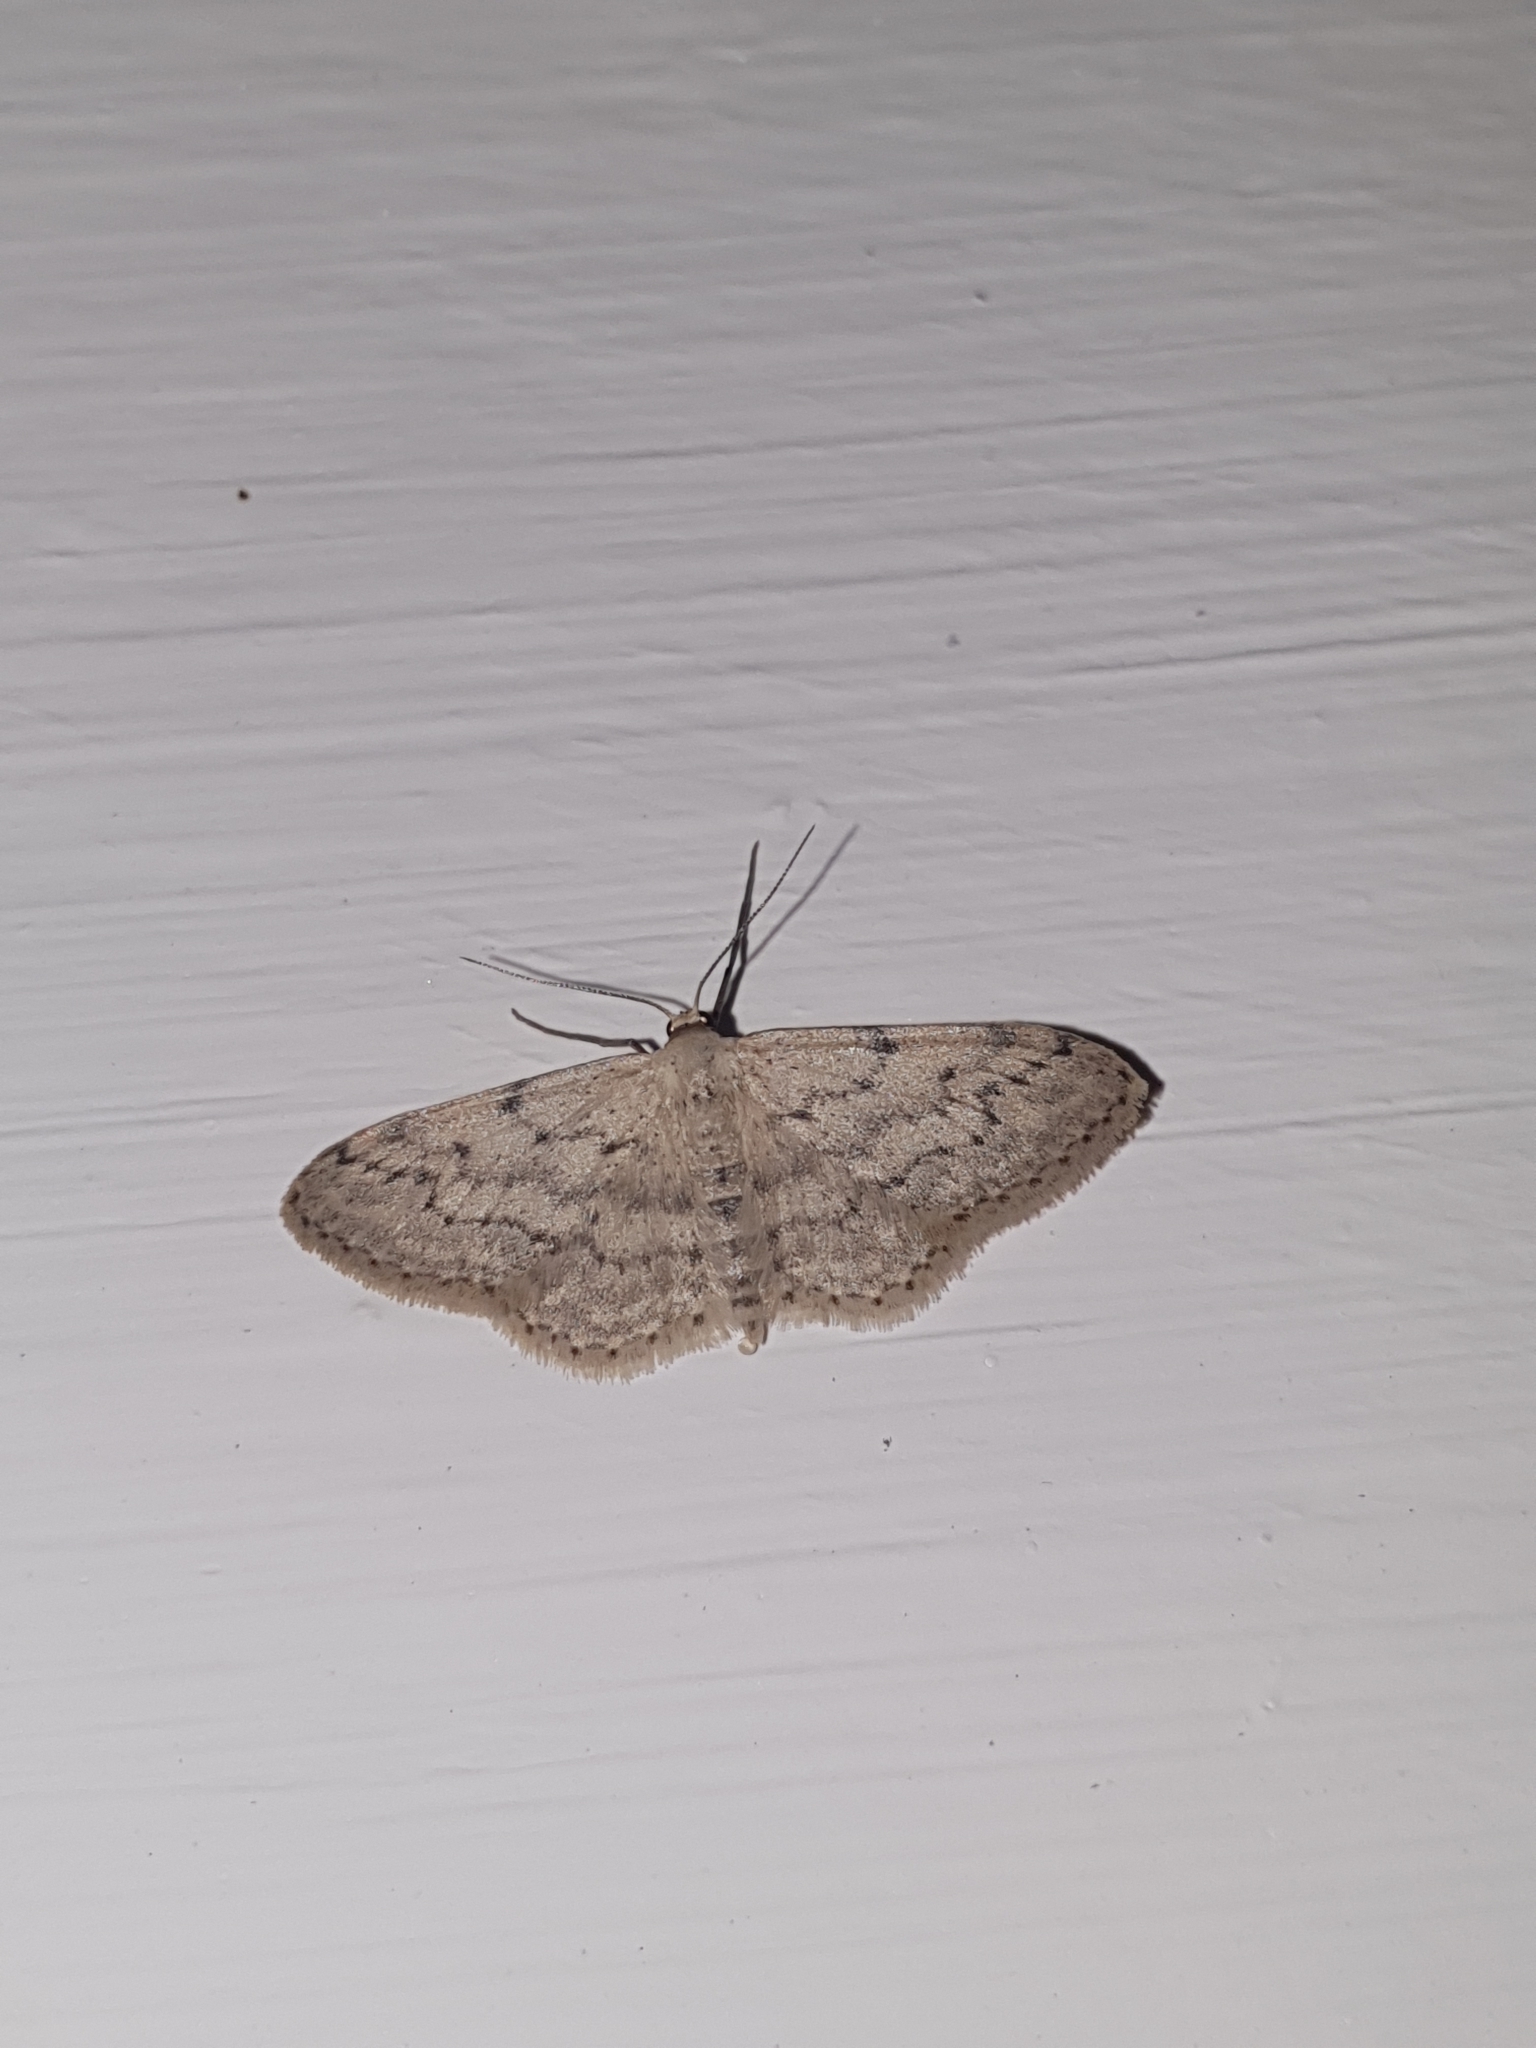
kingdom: Animalia
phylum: Arthropoda
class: Insecta
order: Lepidoptera
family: Geometridae
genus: Idaea
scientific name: Idaea seriata
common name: Small dusty wave
